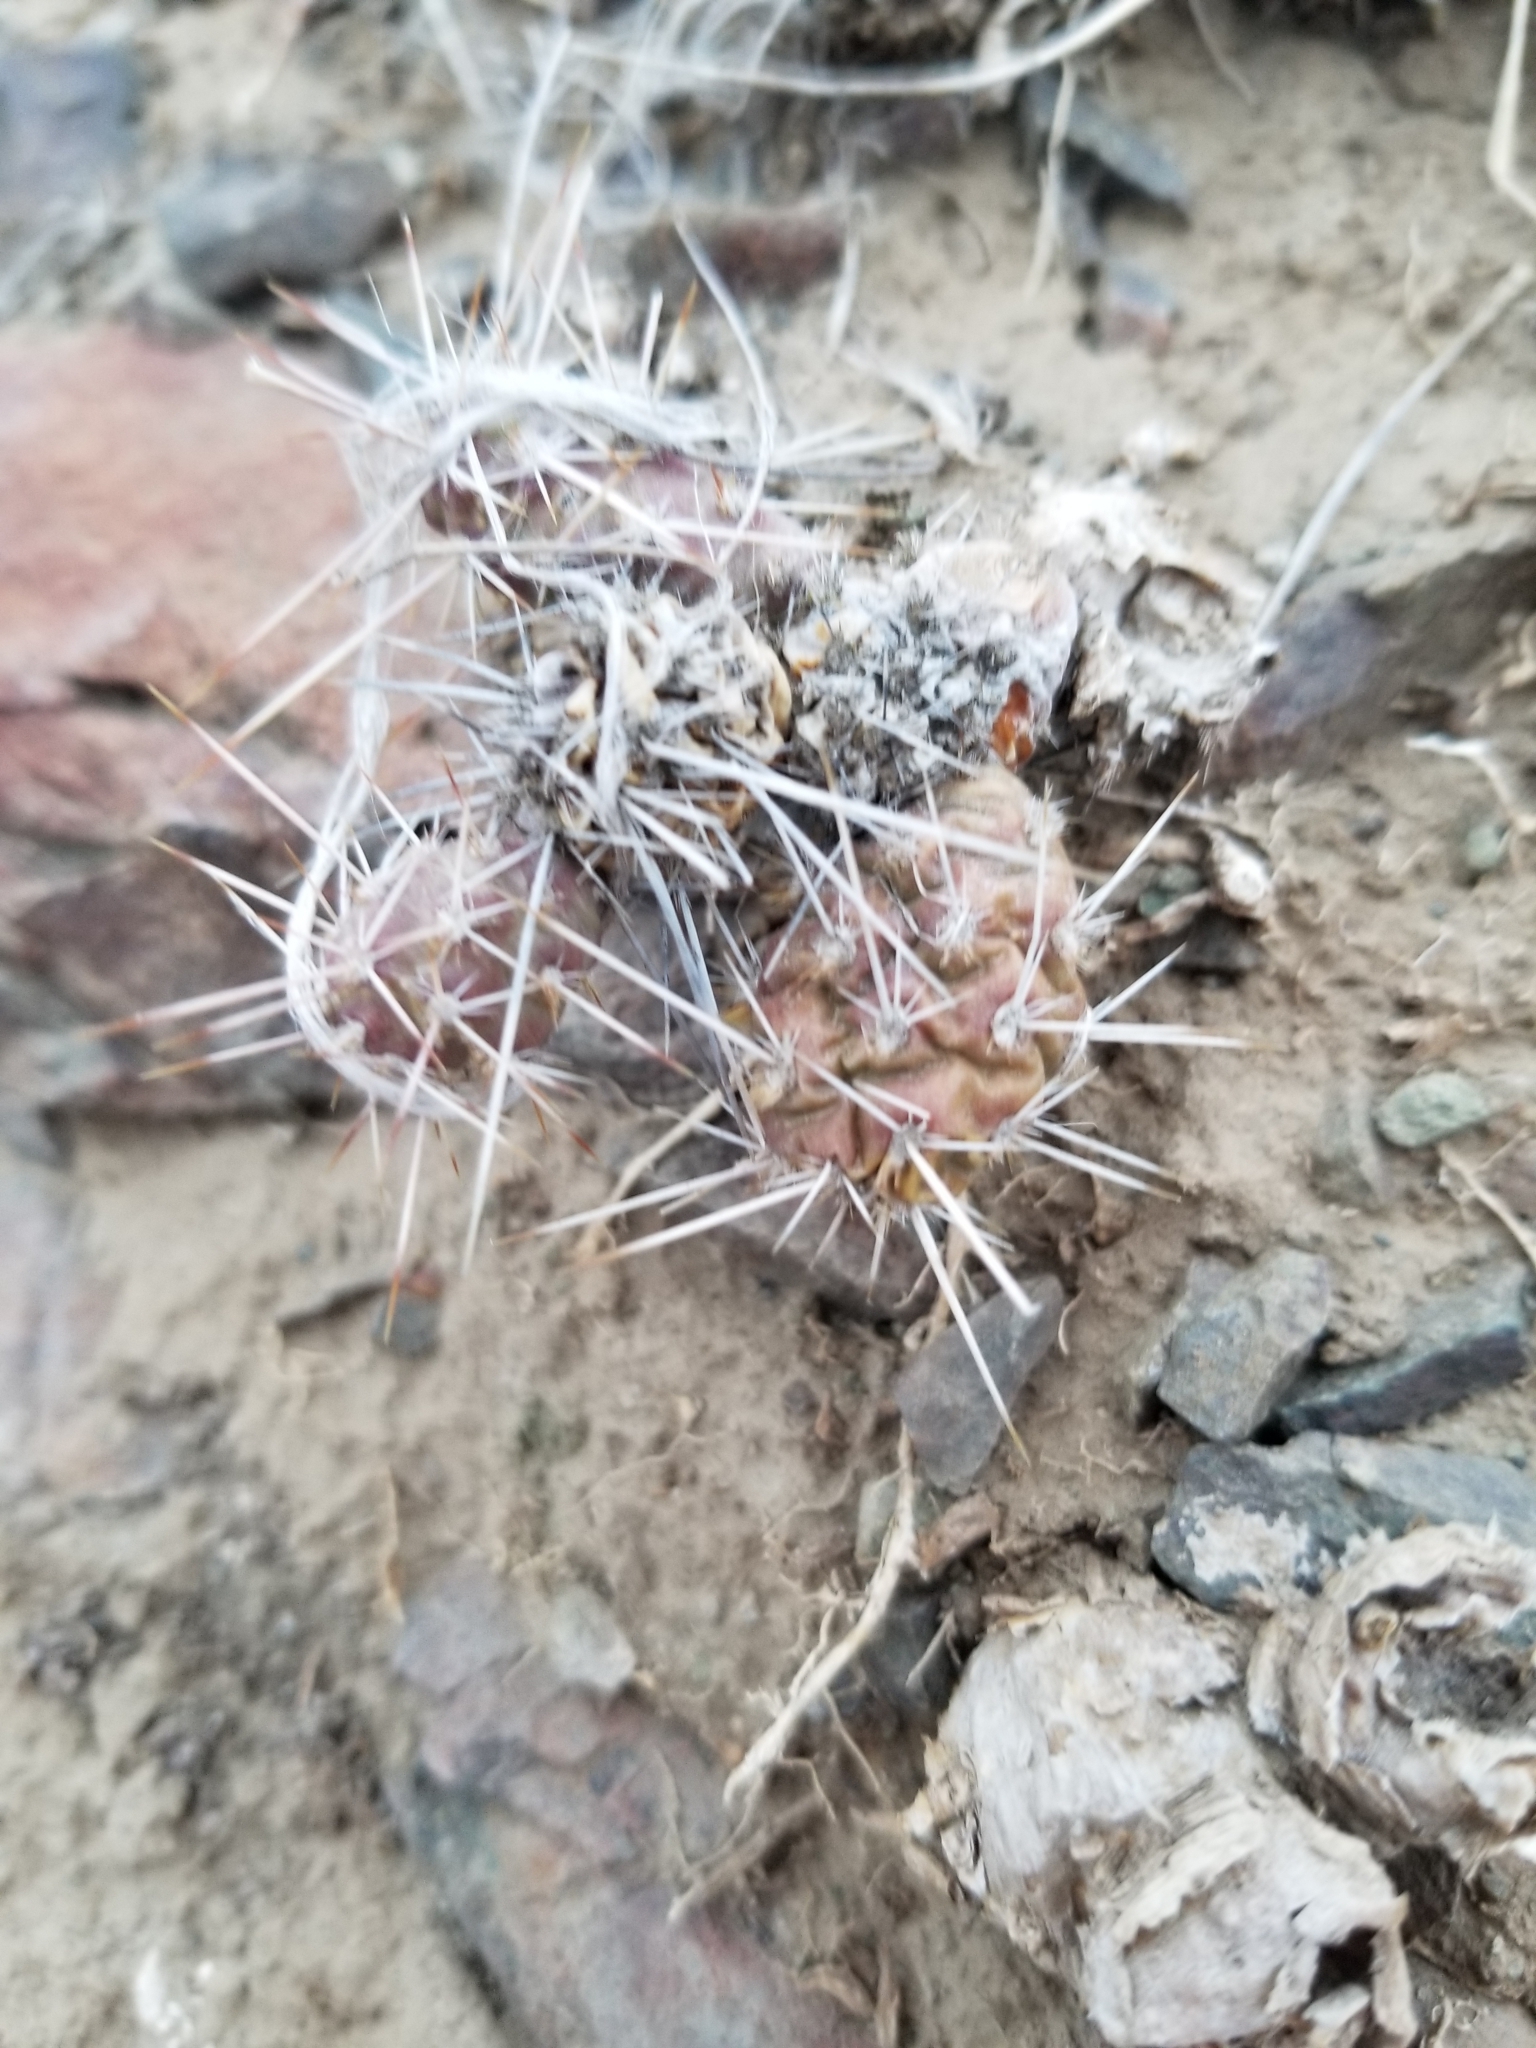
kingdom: Plantae
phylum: Tracheophyta
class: Magnoliopsida
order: Caryophyllales
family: Cactaceae
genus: Opuntia
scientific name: Opuntia fragilis
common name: Brittle cactus
